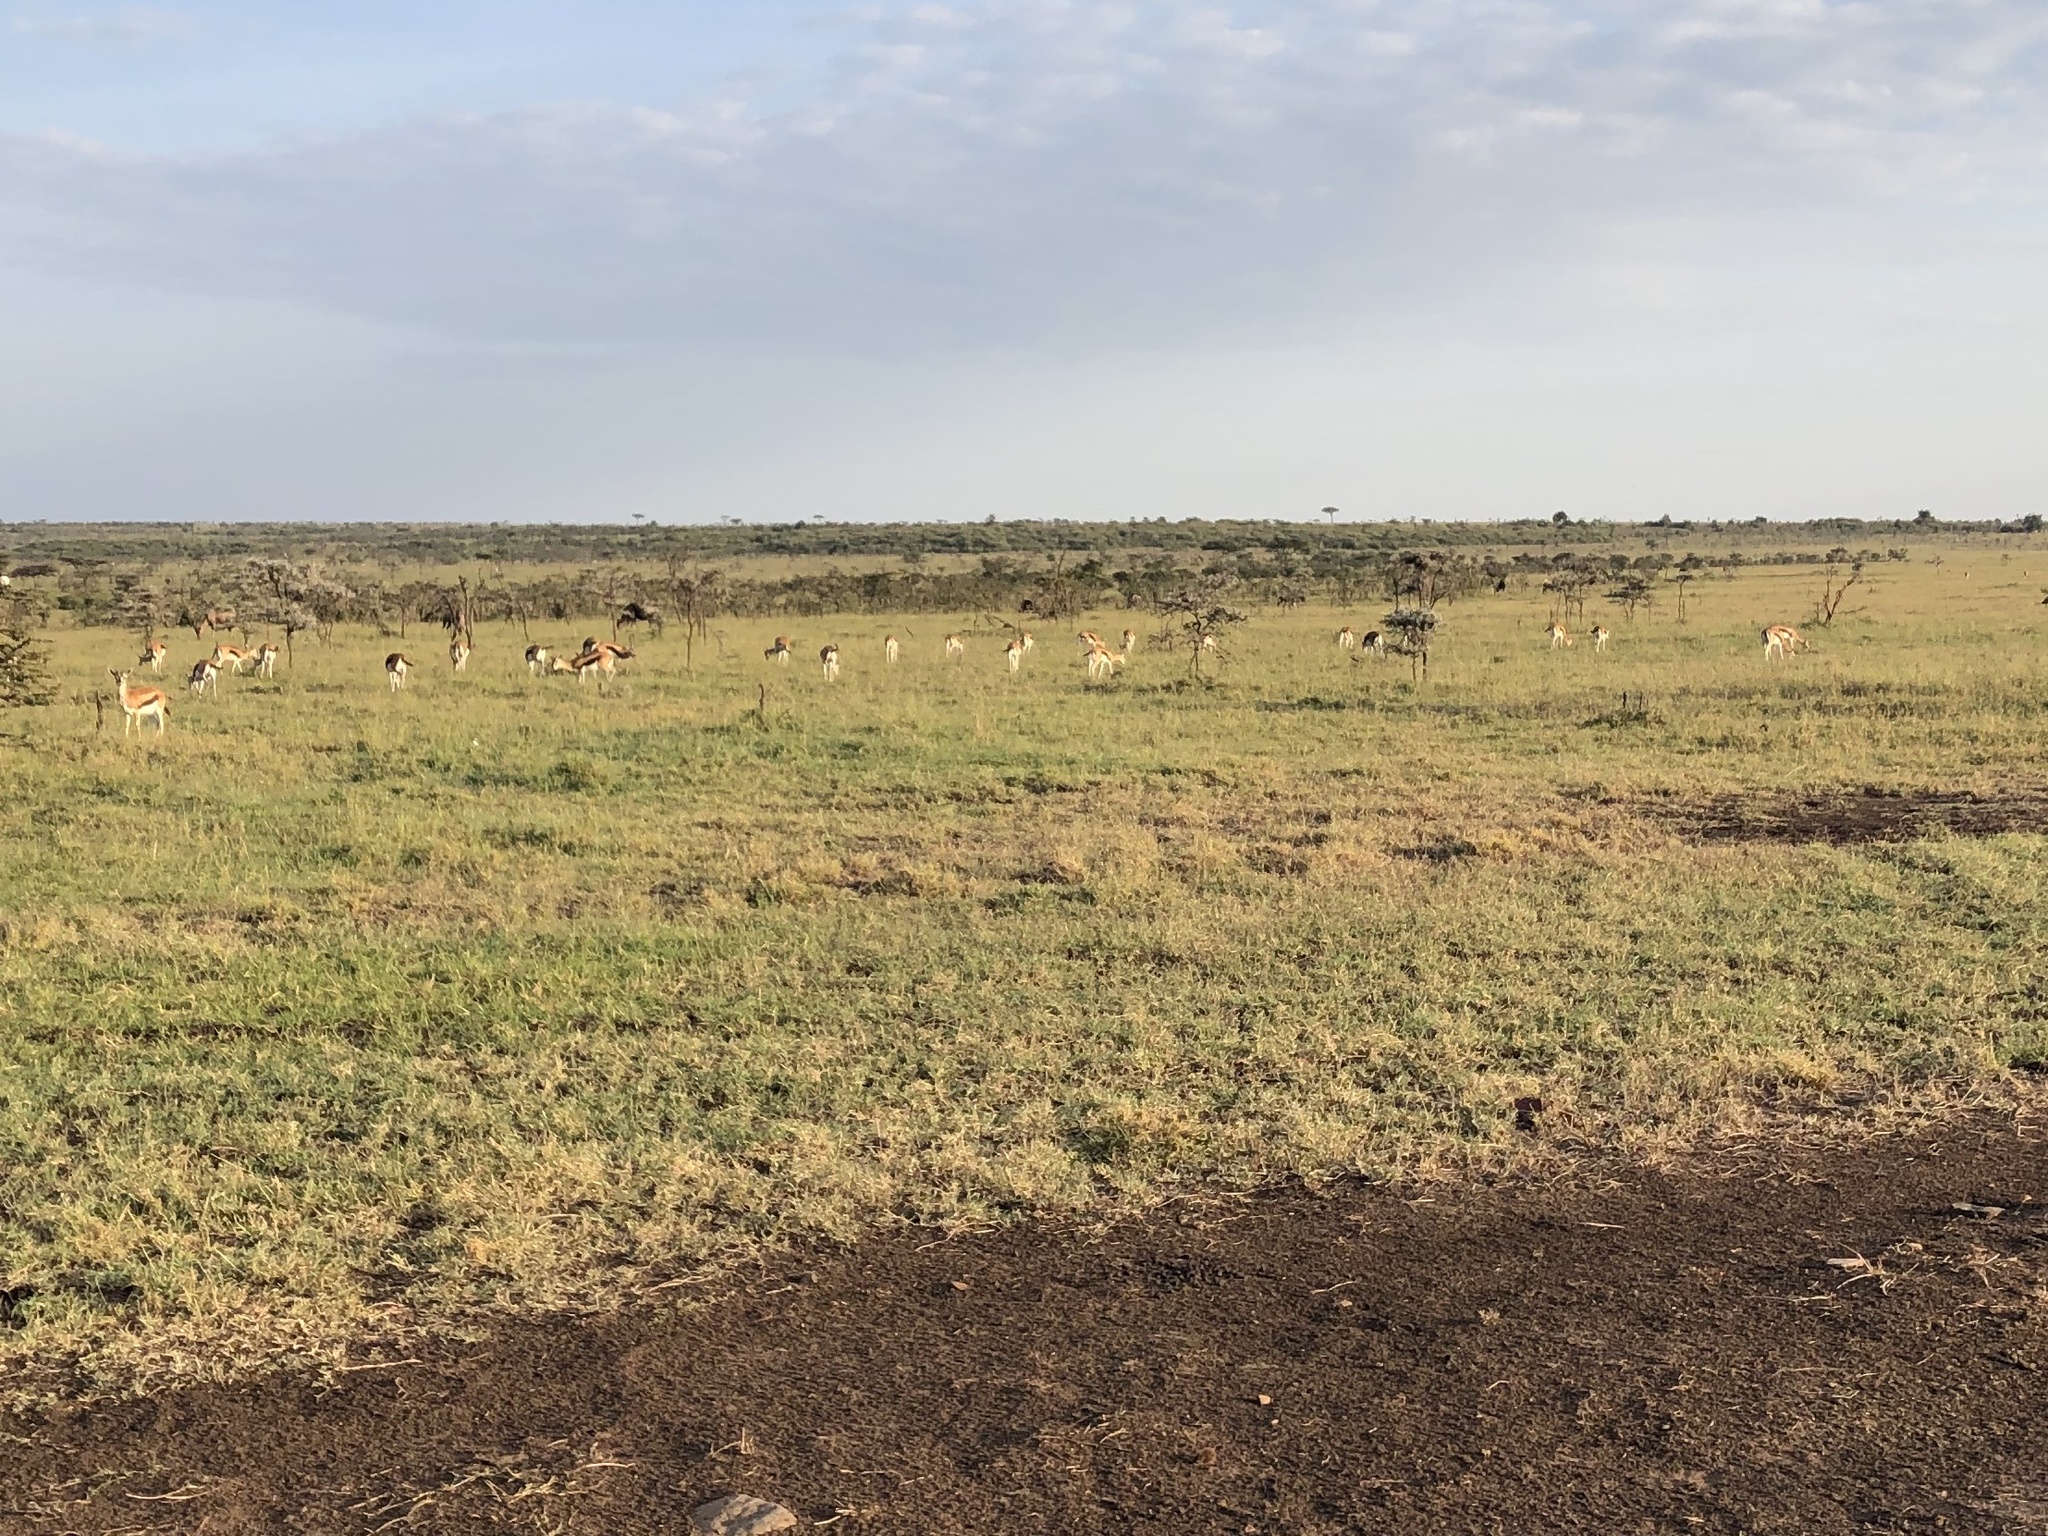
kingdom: Animalia
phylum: Chordata
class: Mammalia
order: Artiodactyla
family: Bovidae
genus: Eudorcas
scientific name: Eudorcas thomsonii
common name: Thomson's gazelle
